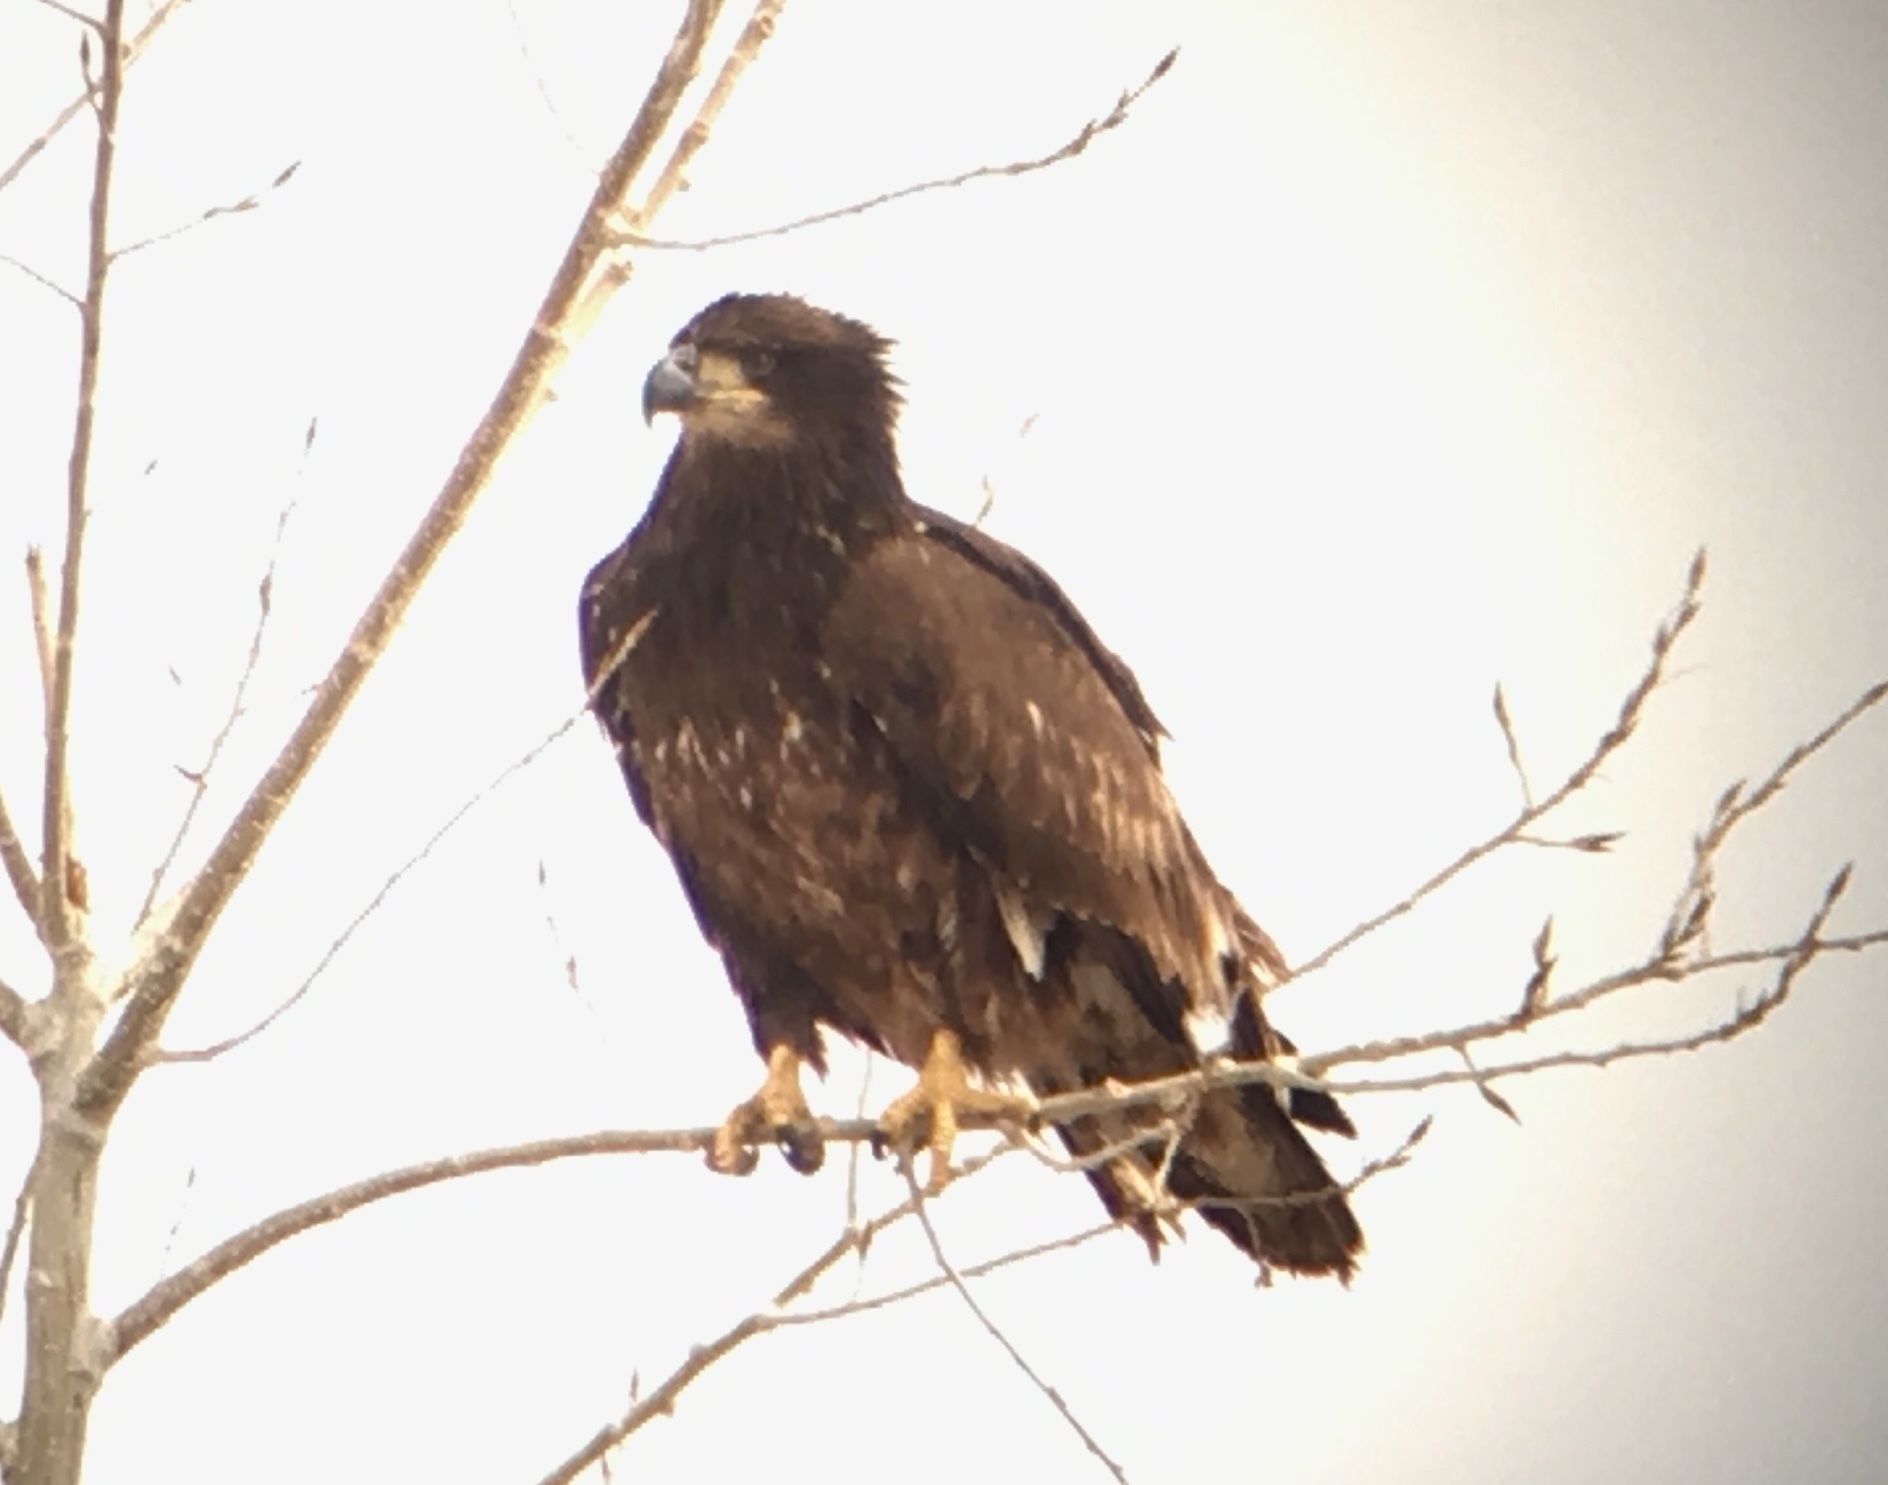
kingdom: Animalia
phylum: Chordata
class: Aves
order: Accipitriformes
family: Accipitridae
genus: Haliaeetus
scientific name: Haliaeetus leucocephalus
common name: Bald eagle
